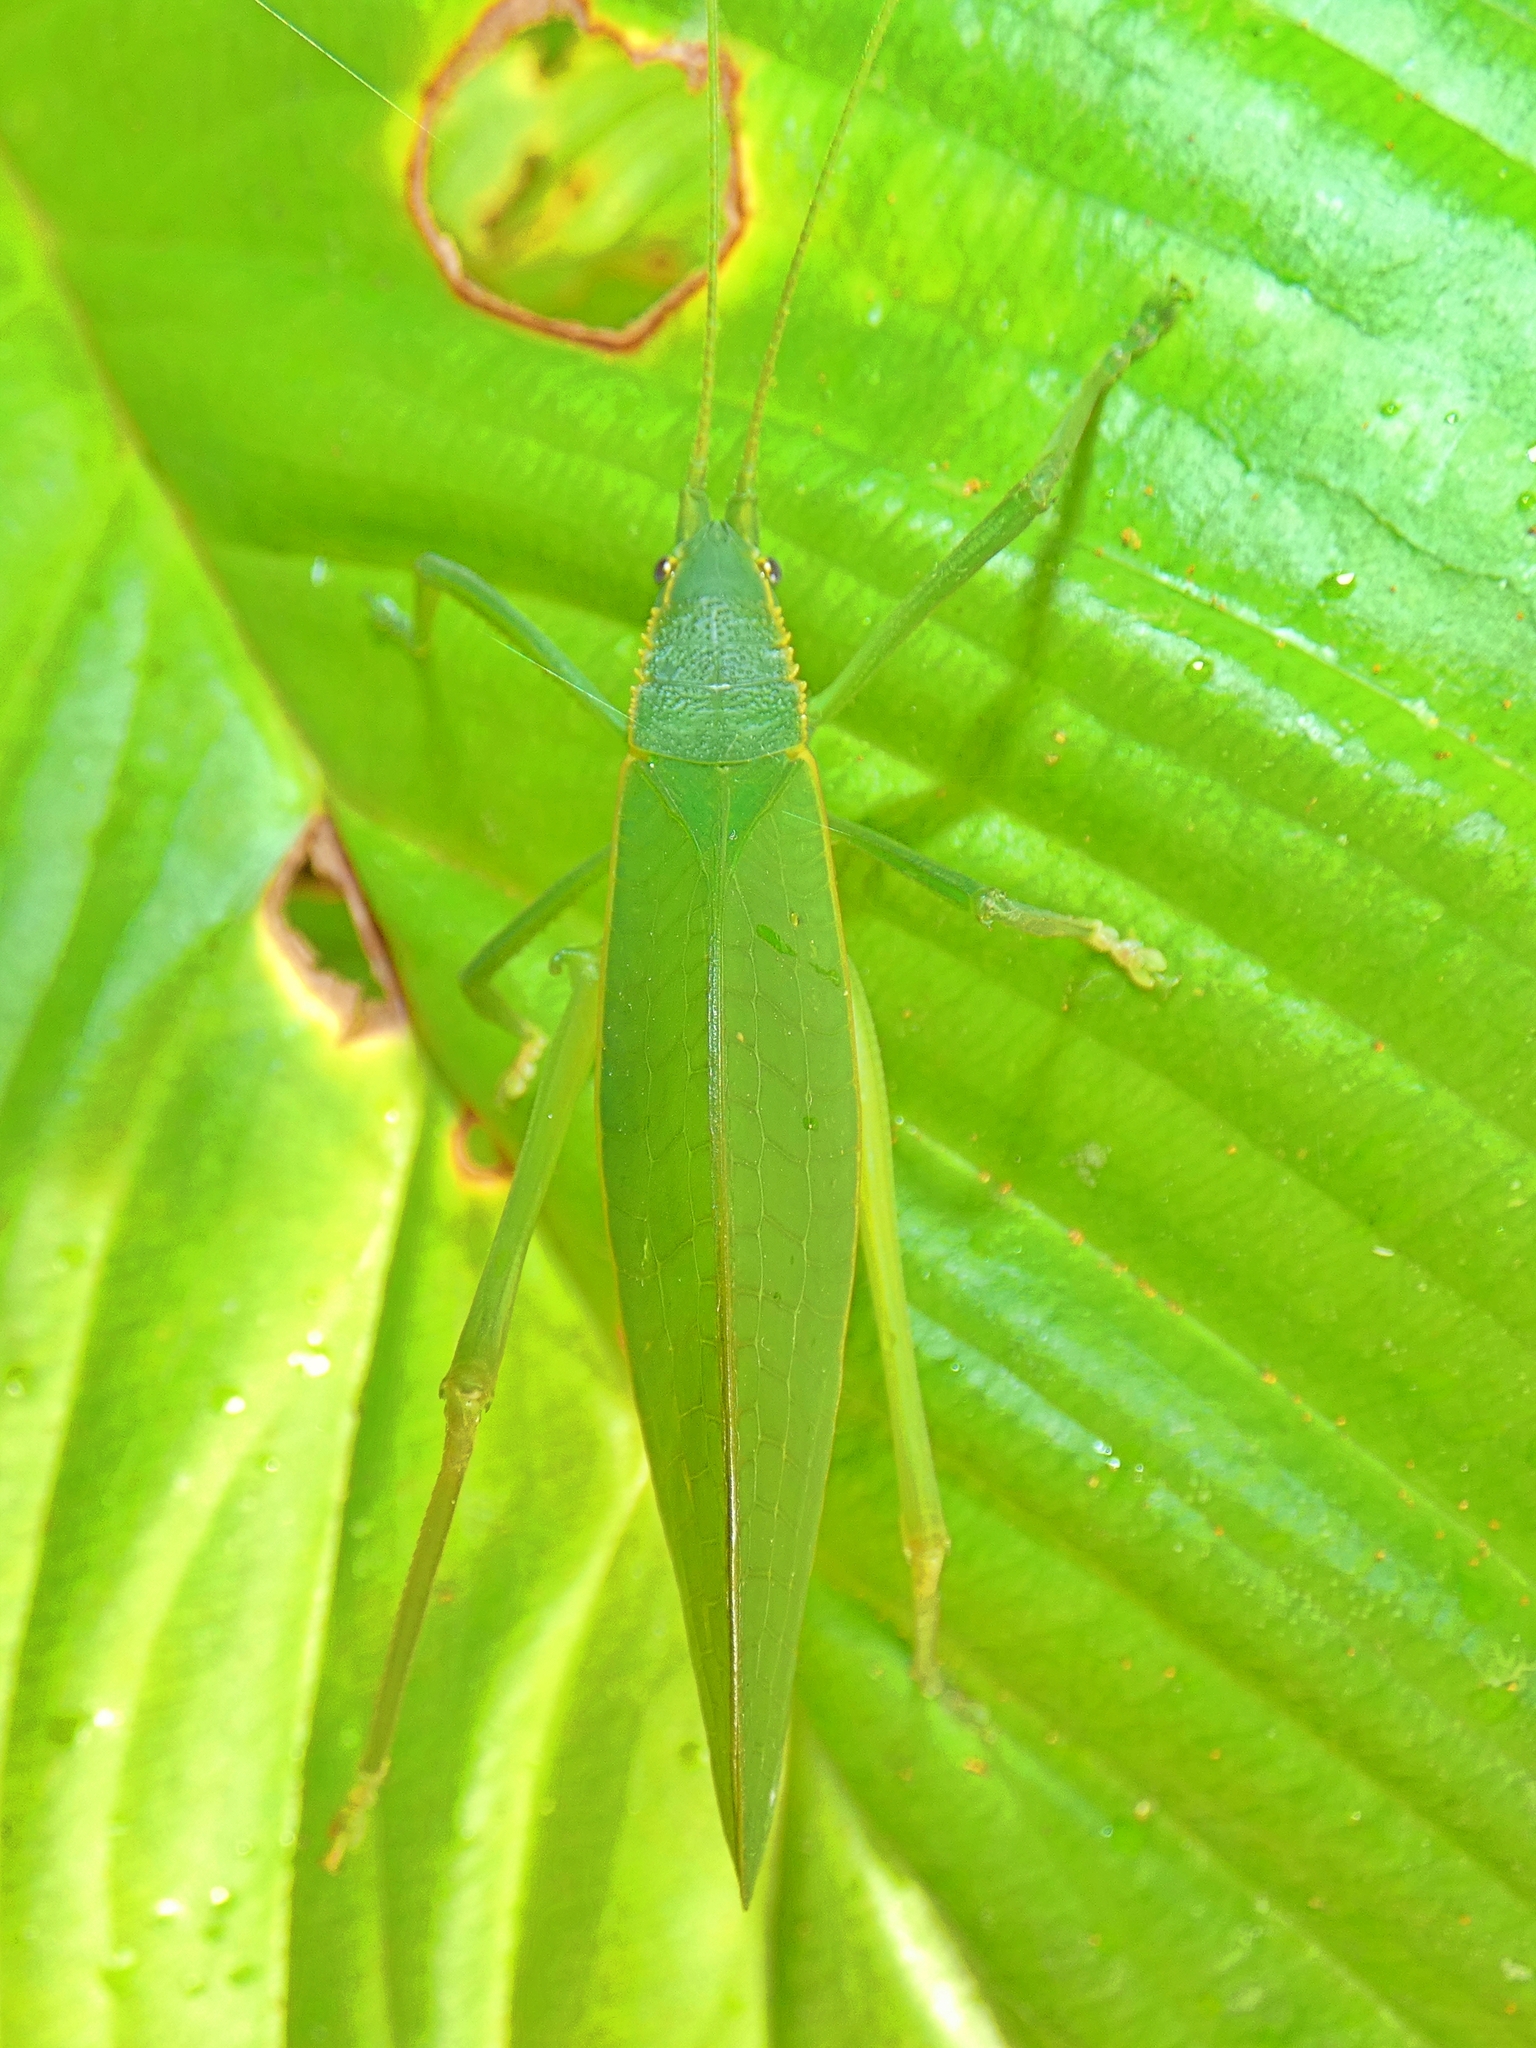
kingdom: Animalia
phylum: Arthropoda
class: Insecta
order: Orthoptera
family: Tettigoniidae
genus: Mastighaphoides
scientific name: Mastighaphoides tuberculatus
